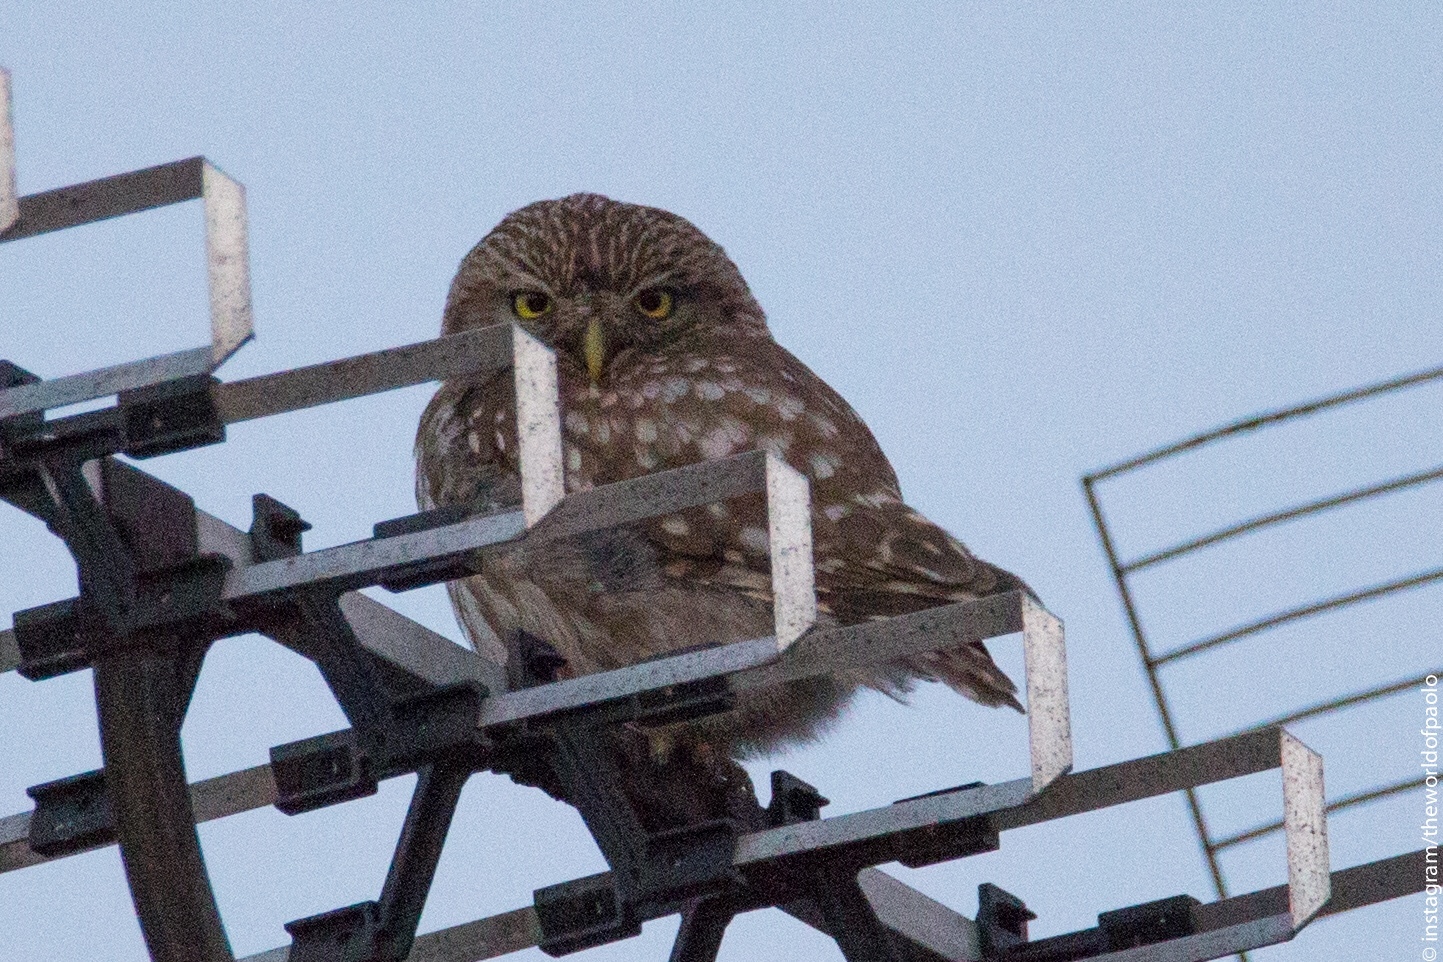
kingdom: Animalia
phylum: Chordata
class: Aves
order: Strigiformes
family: Strigidae
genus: Athene
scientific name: Athene noctua
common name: Little owl
